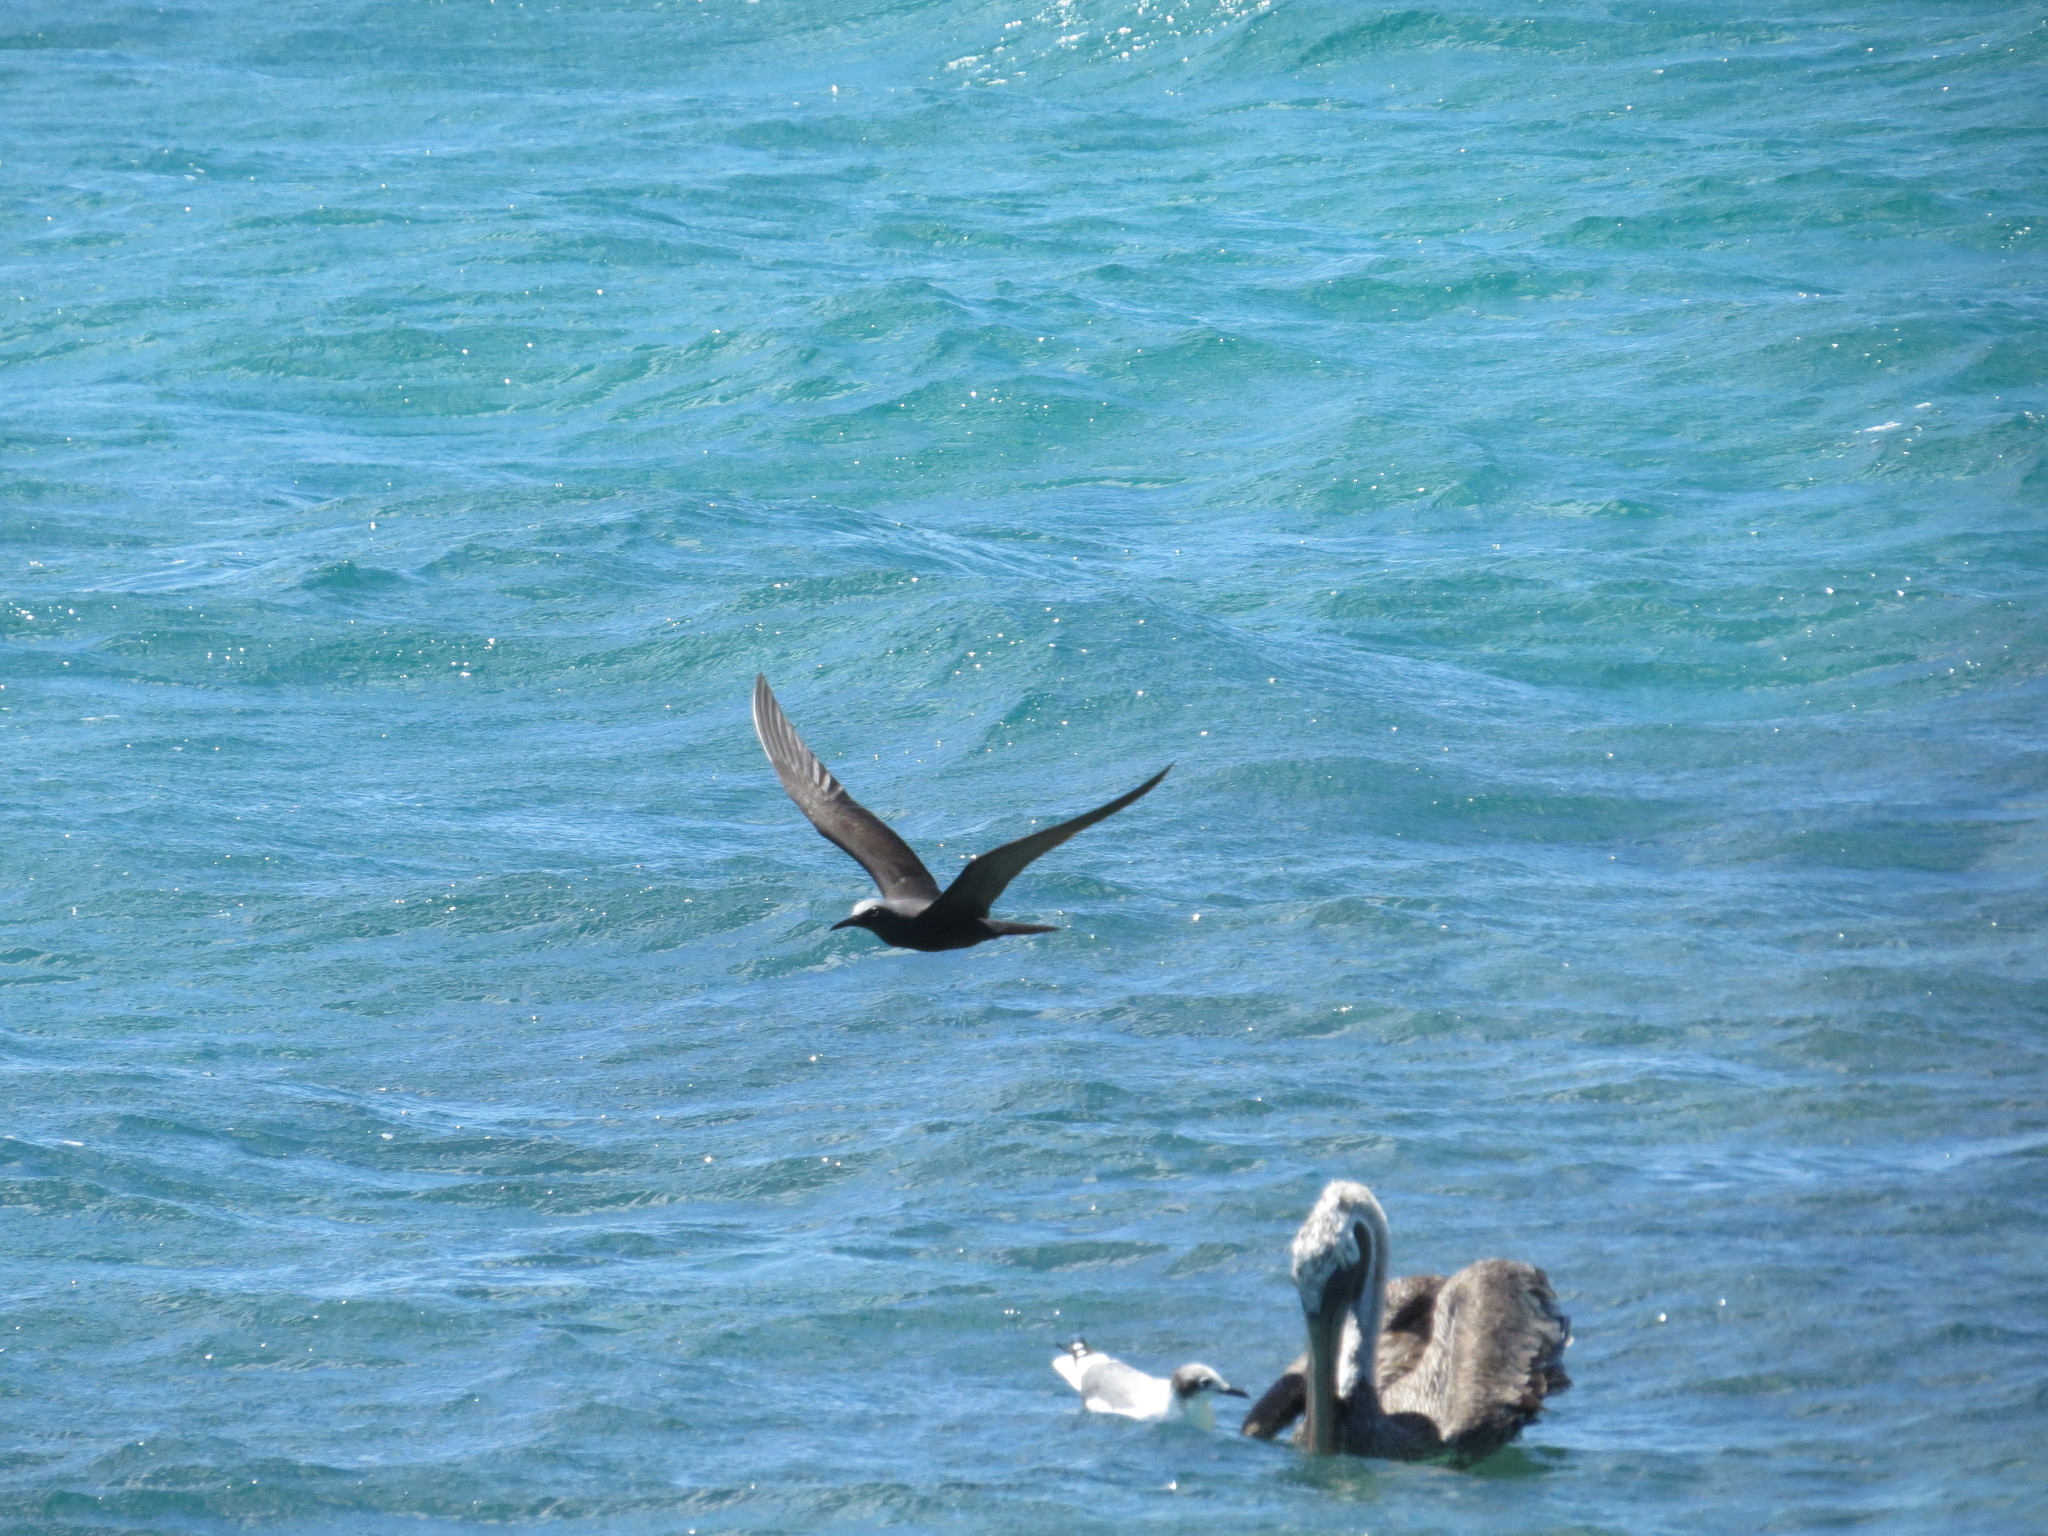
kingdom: Animalia
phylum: Chordata
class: Aves
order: Charadriiformes
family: Laridae
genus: Anous
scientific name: Anous stolidus
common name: Brown noddy
